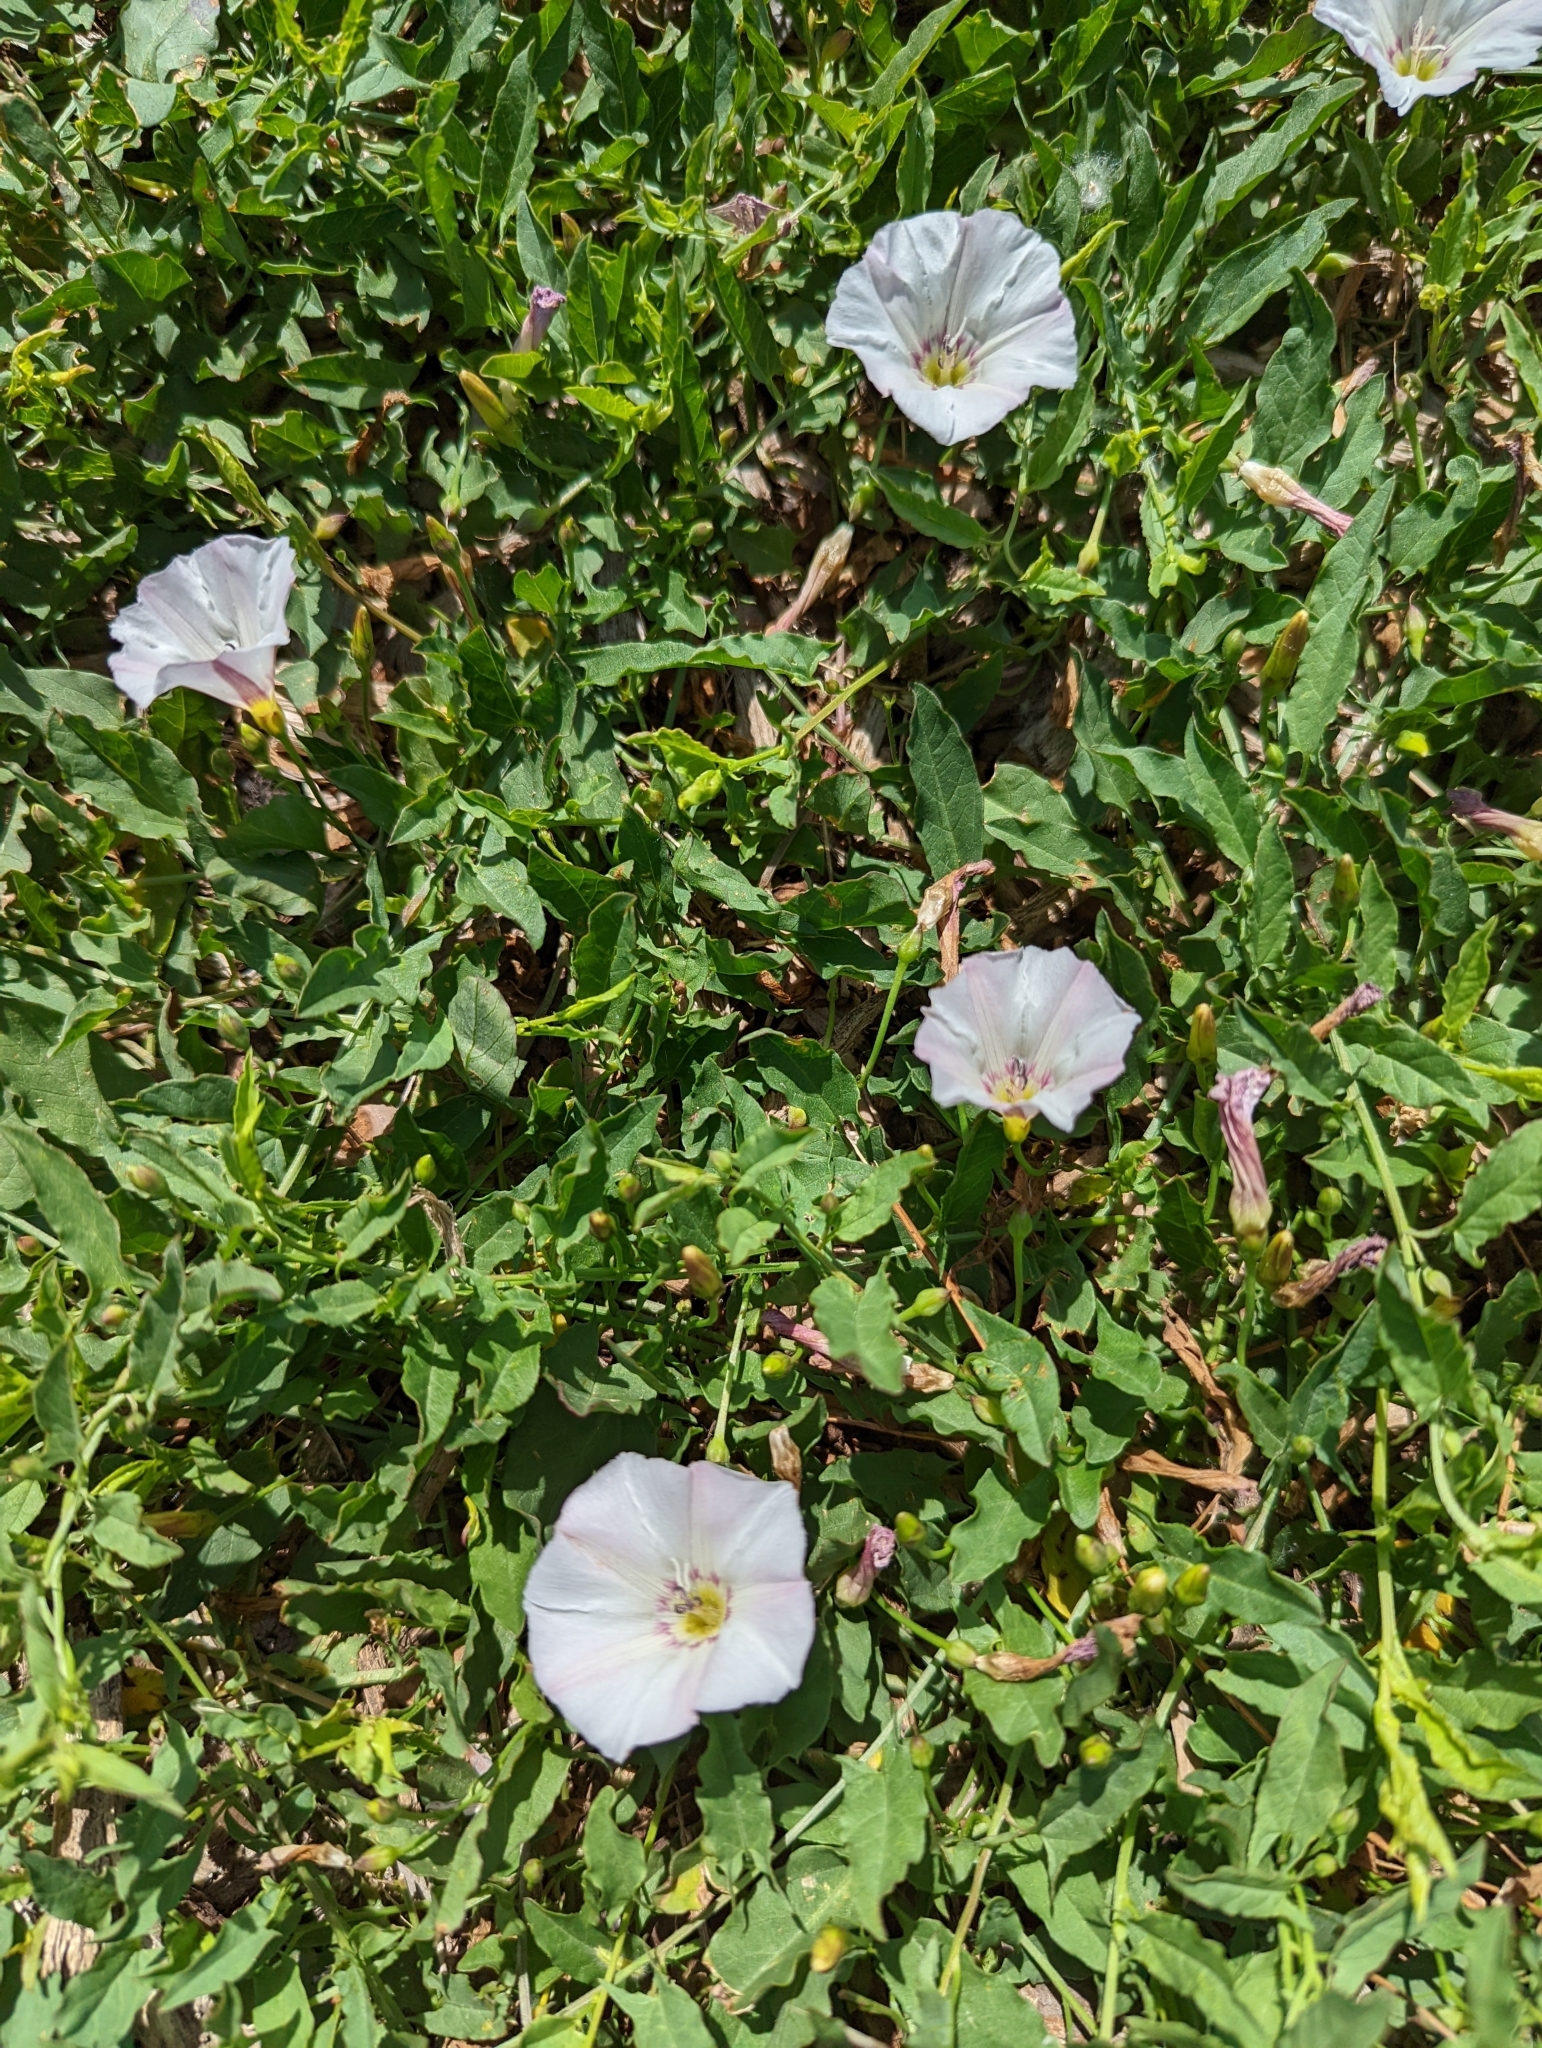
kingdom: Plantae
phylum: Tracheophyta
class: Magnoliopsida
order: Solanales
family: Convolvulaceae
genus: Convolvulus
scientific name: Convolvulus arvensis
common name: Field bindweed
